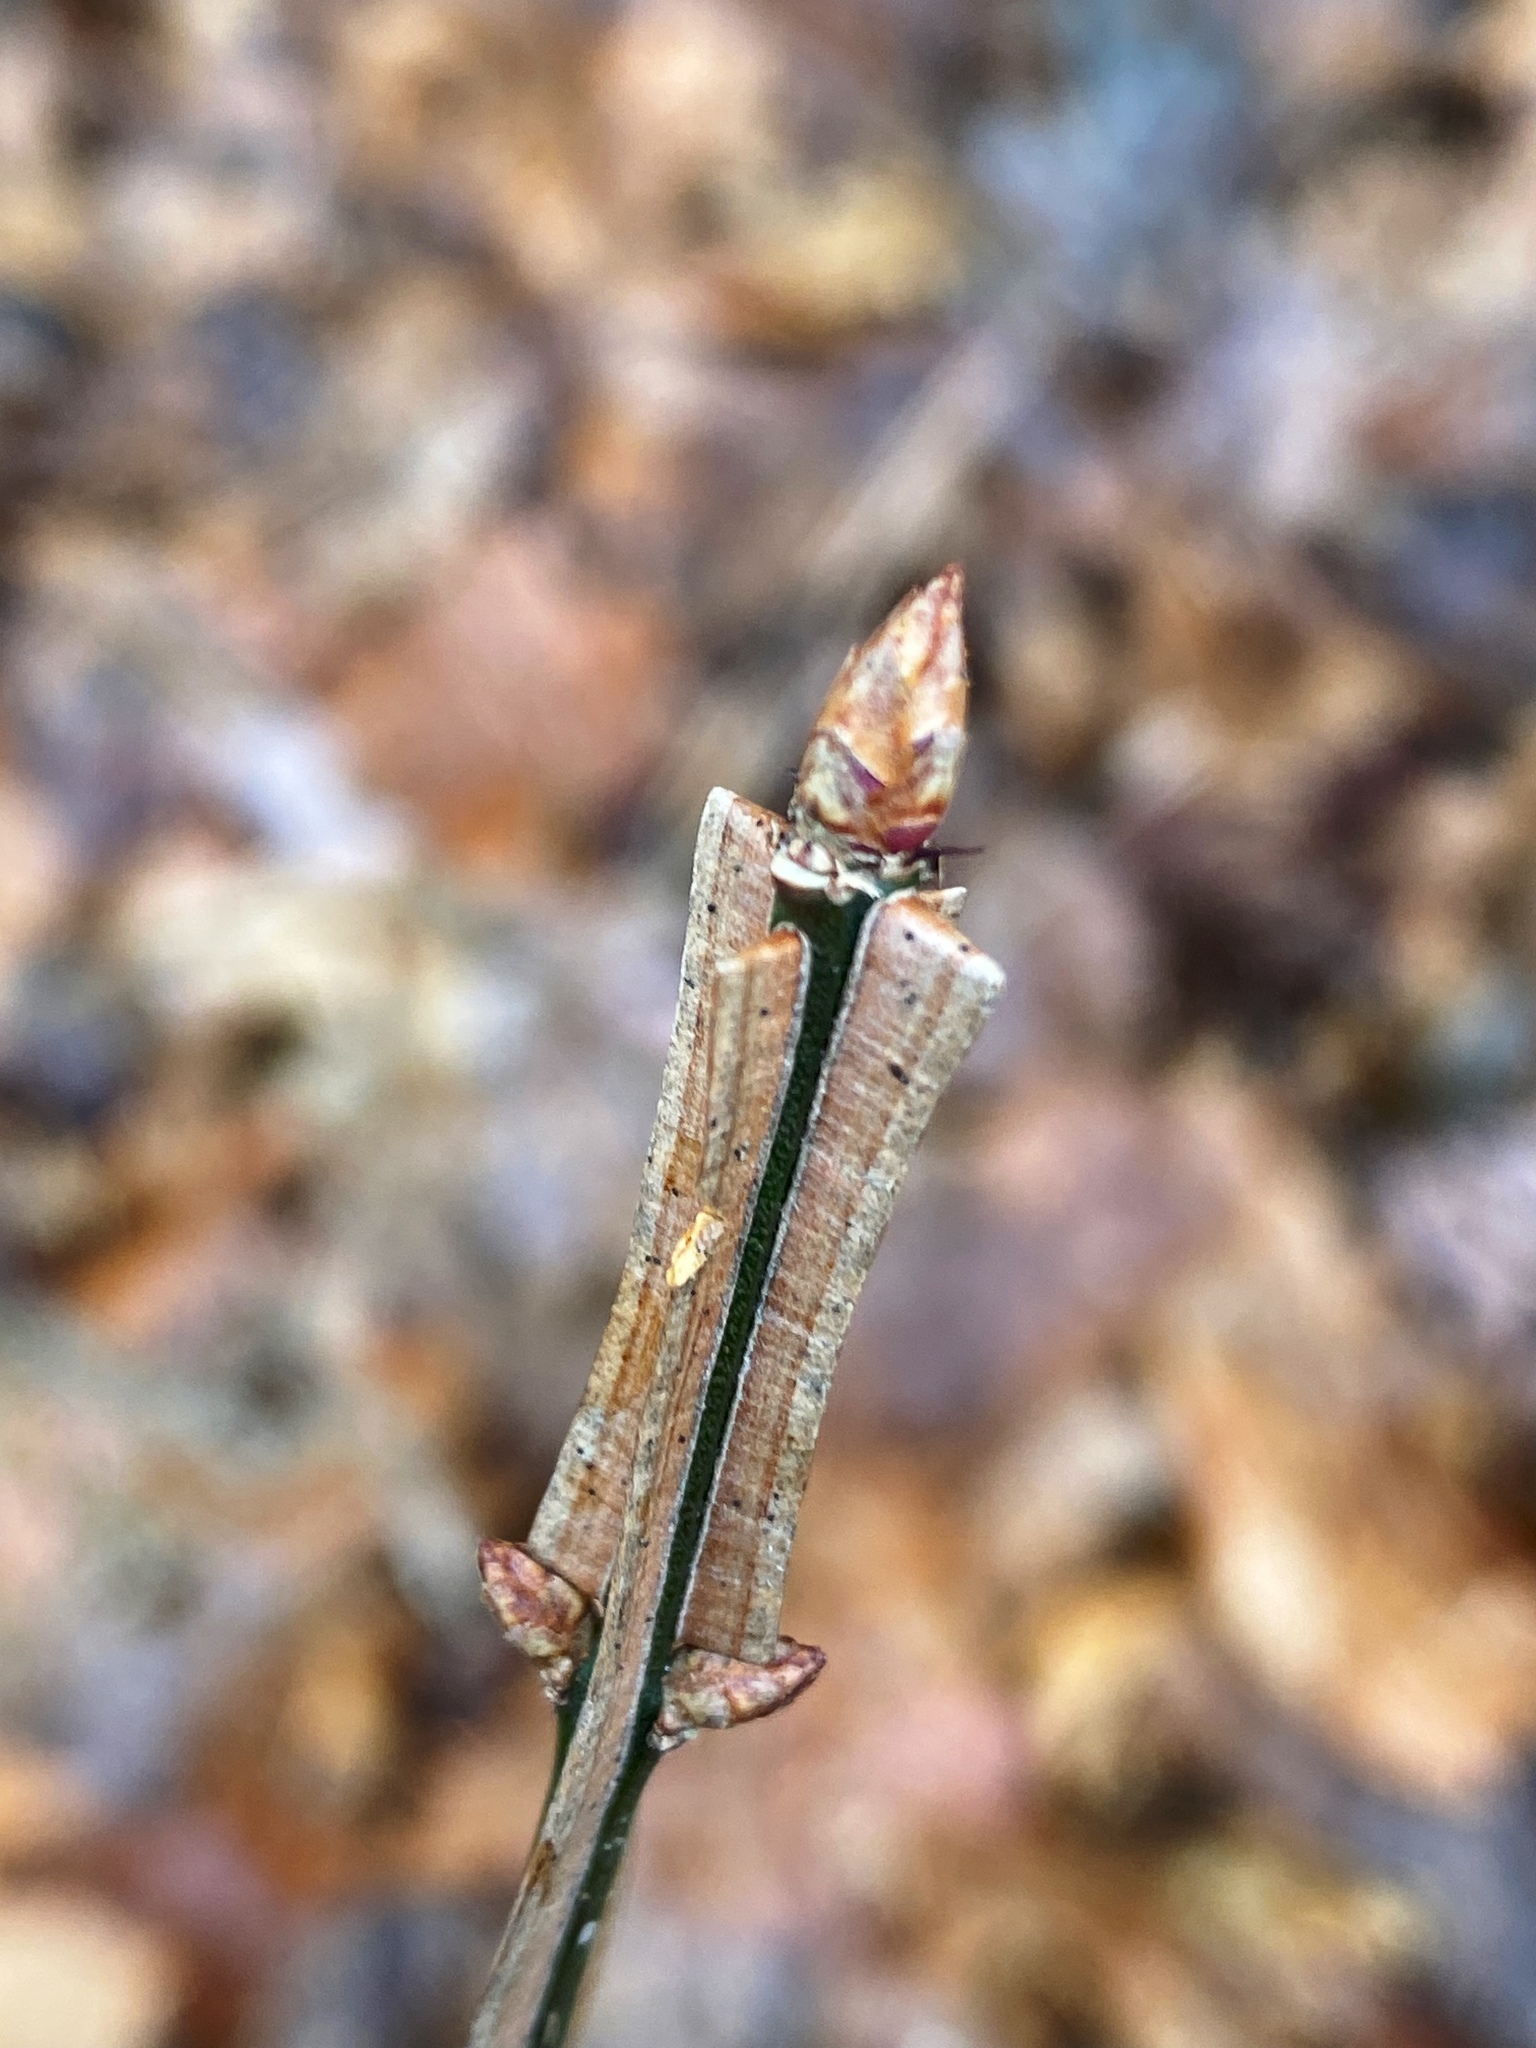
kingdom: Plantae
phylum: Tracheophyta
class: Magnoliopsida
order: Celastrales
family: Celastraceae
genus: Euonymus
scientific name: Euonymus alatus
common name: Winged euonymus
